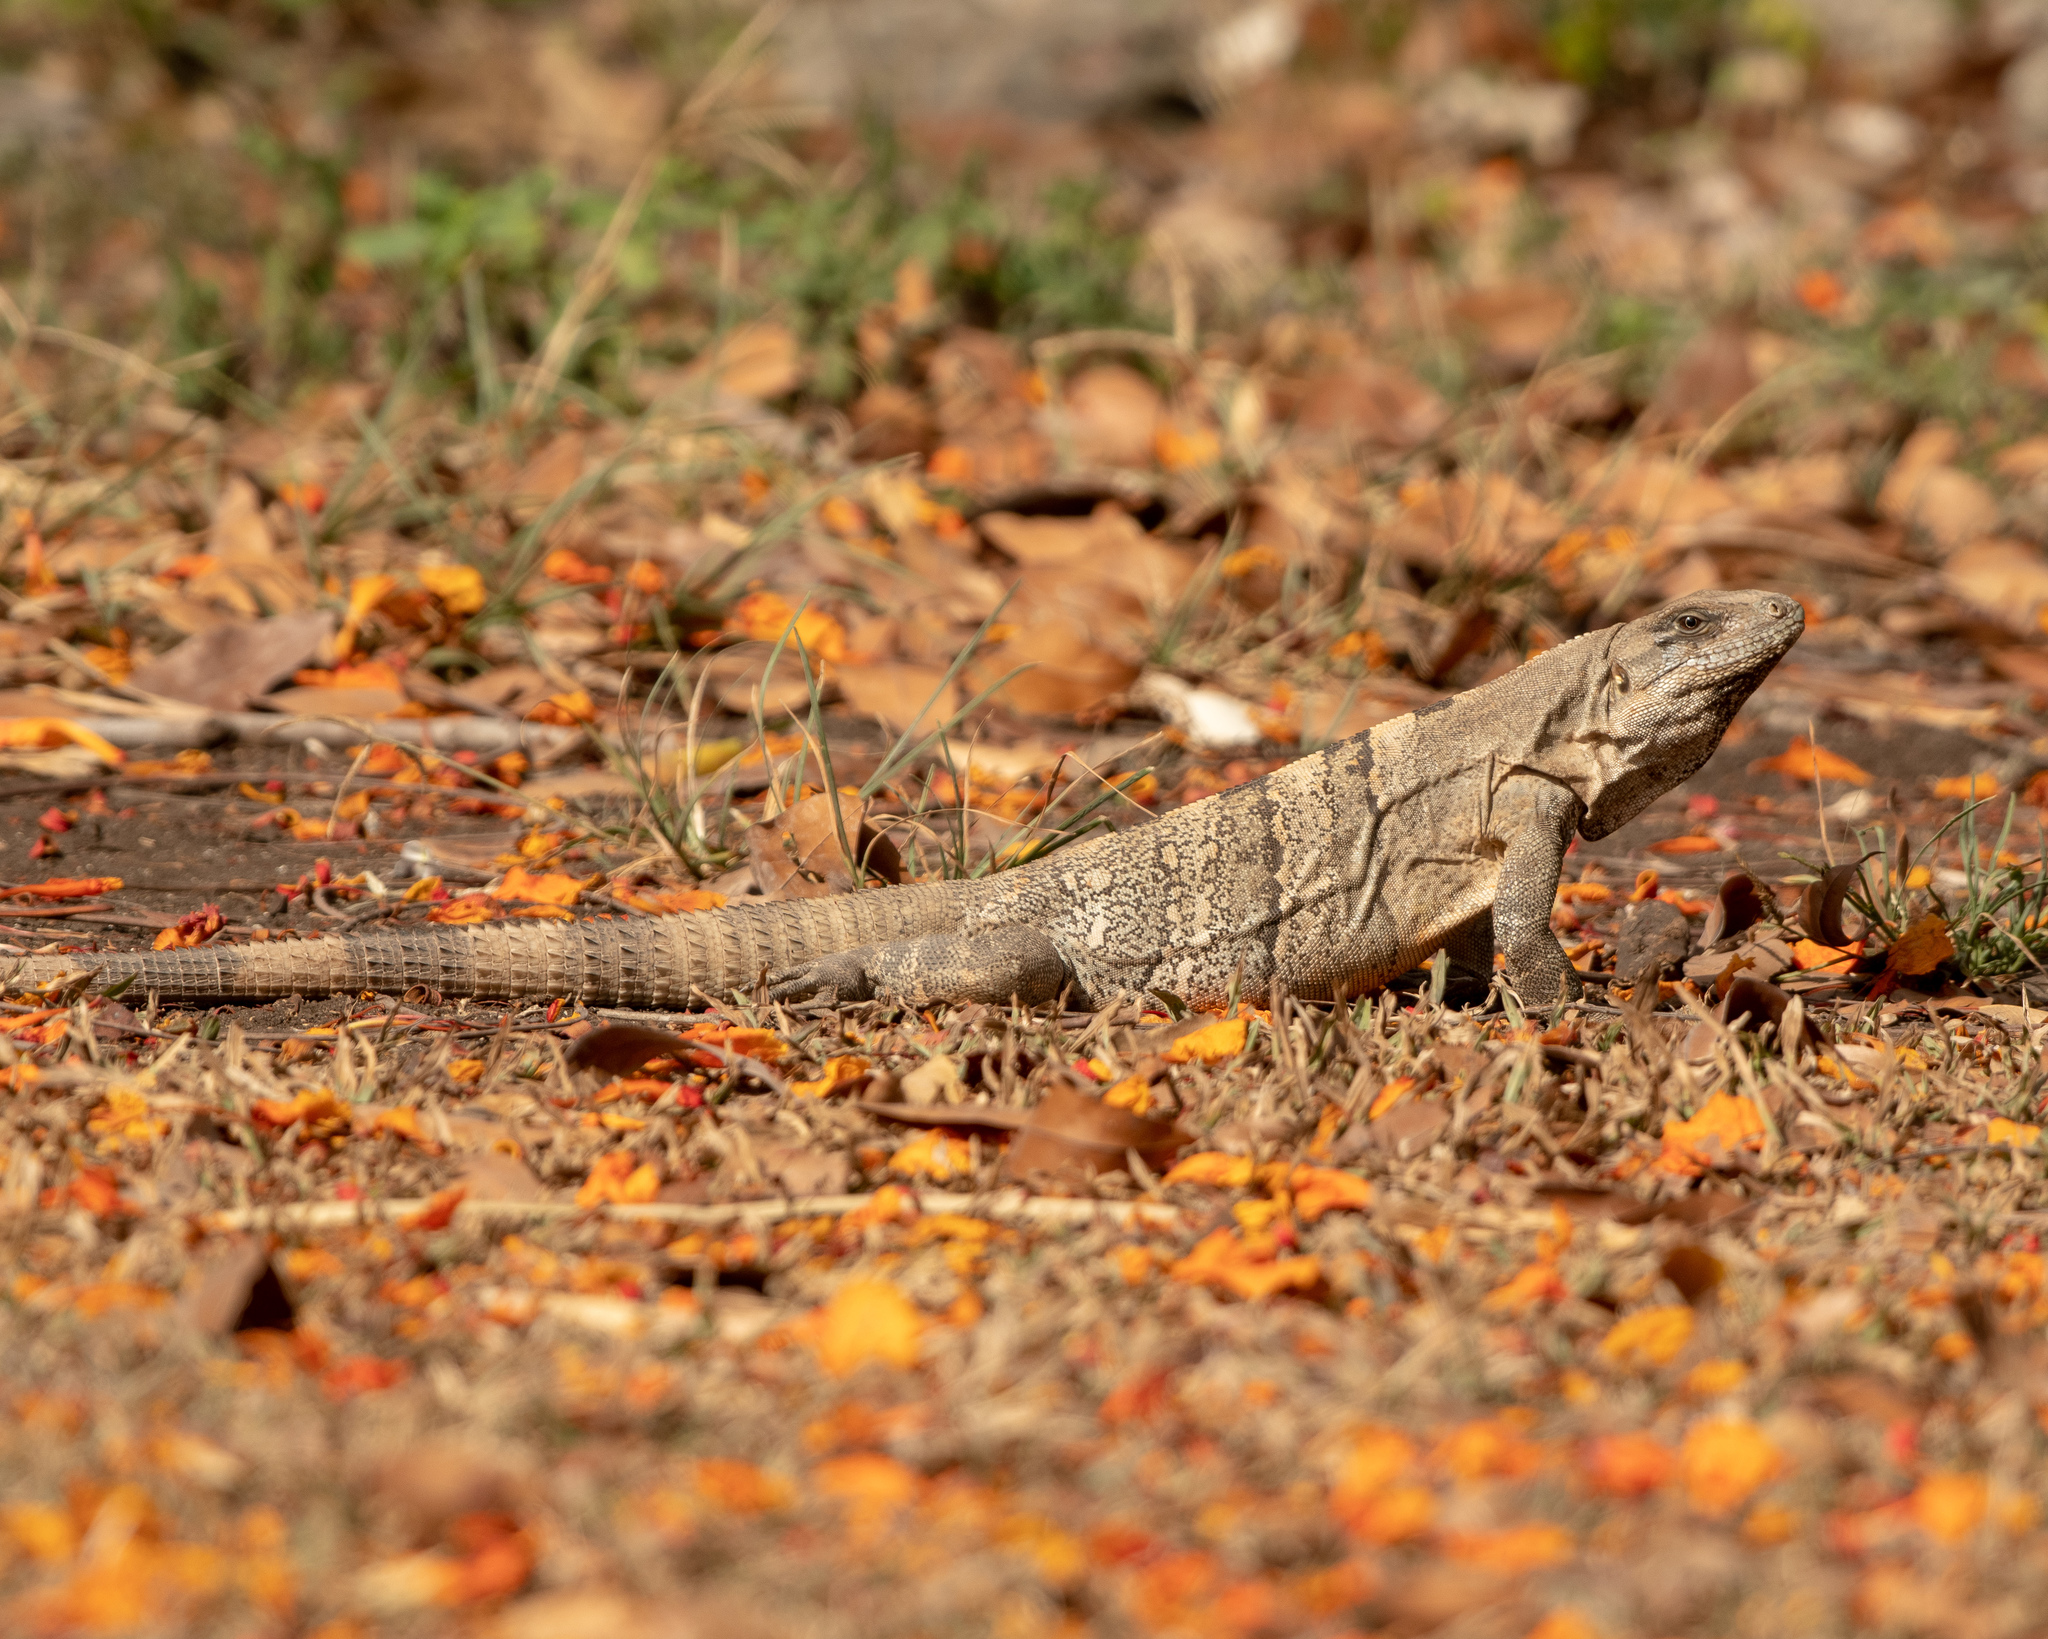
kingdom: Animalia
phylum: Chordata
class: Squamata
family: Iguanidae
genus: Ctenosaura
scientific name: Ctenosaura similis
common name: Black spiny-tailed iguana
